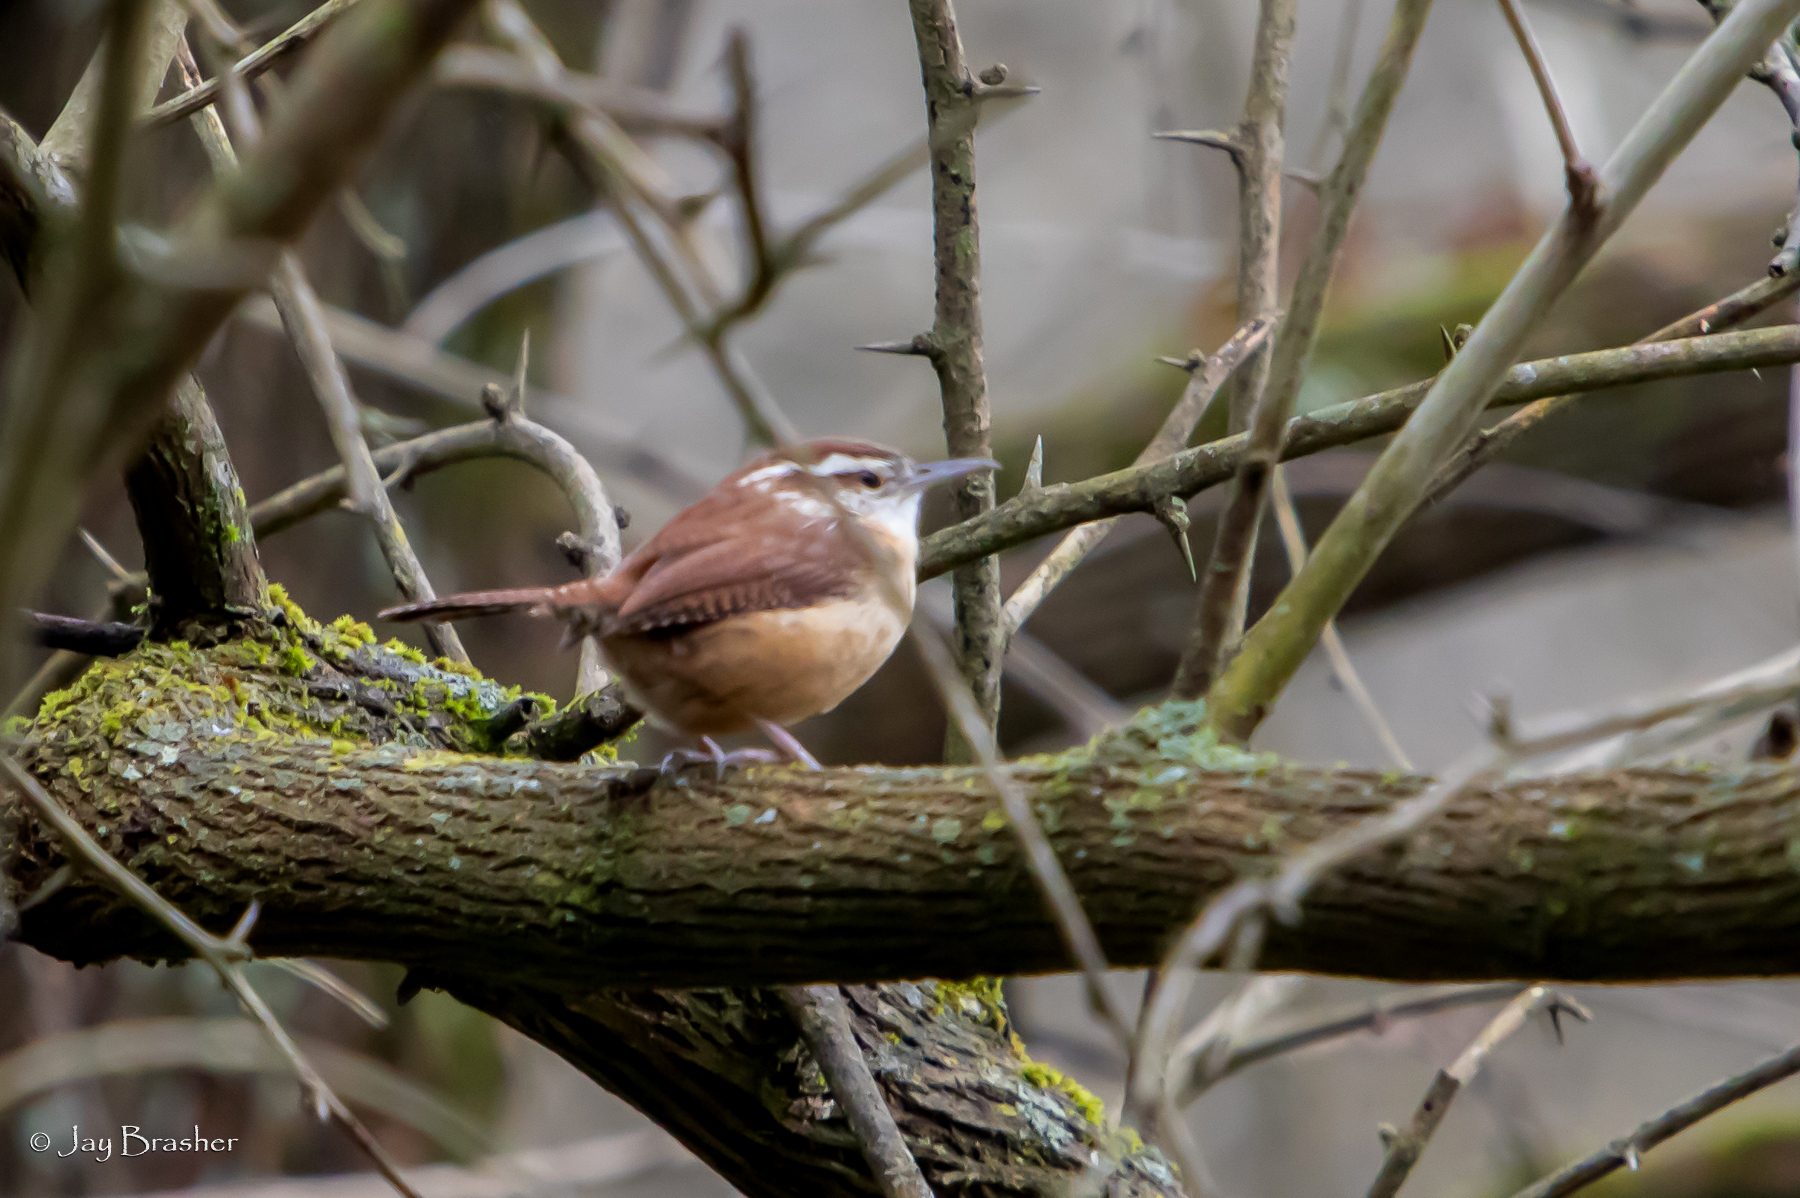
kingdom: Animalia
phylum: Chordata
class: Aves
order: Passeriformes
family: Troglodytidae
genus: Thryothorus
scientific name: Thryothorus ludovicianus
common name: Carolina wren
